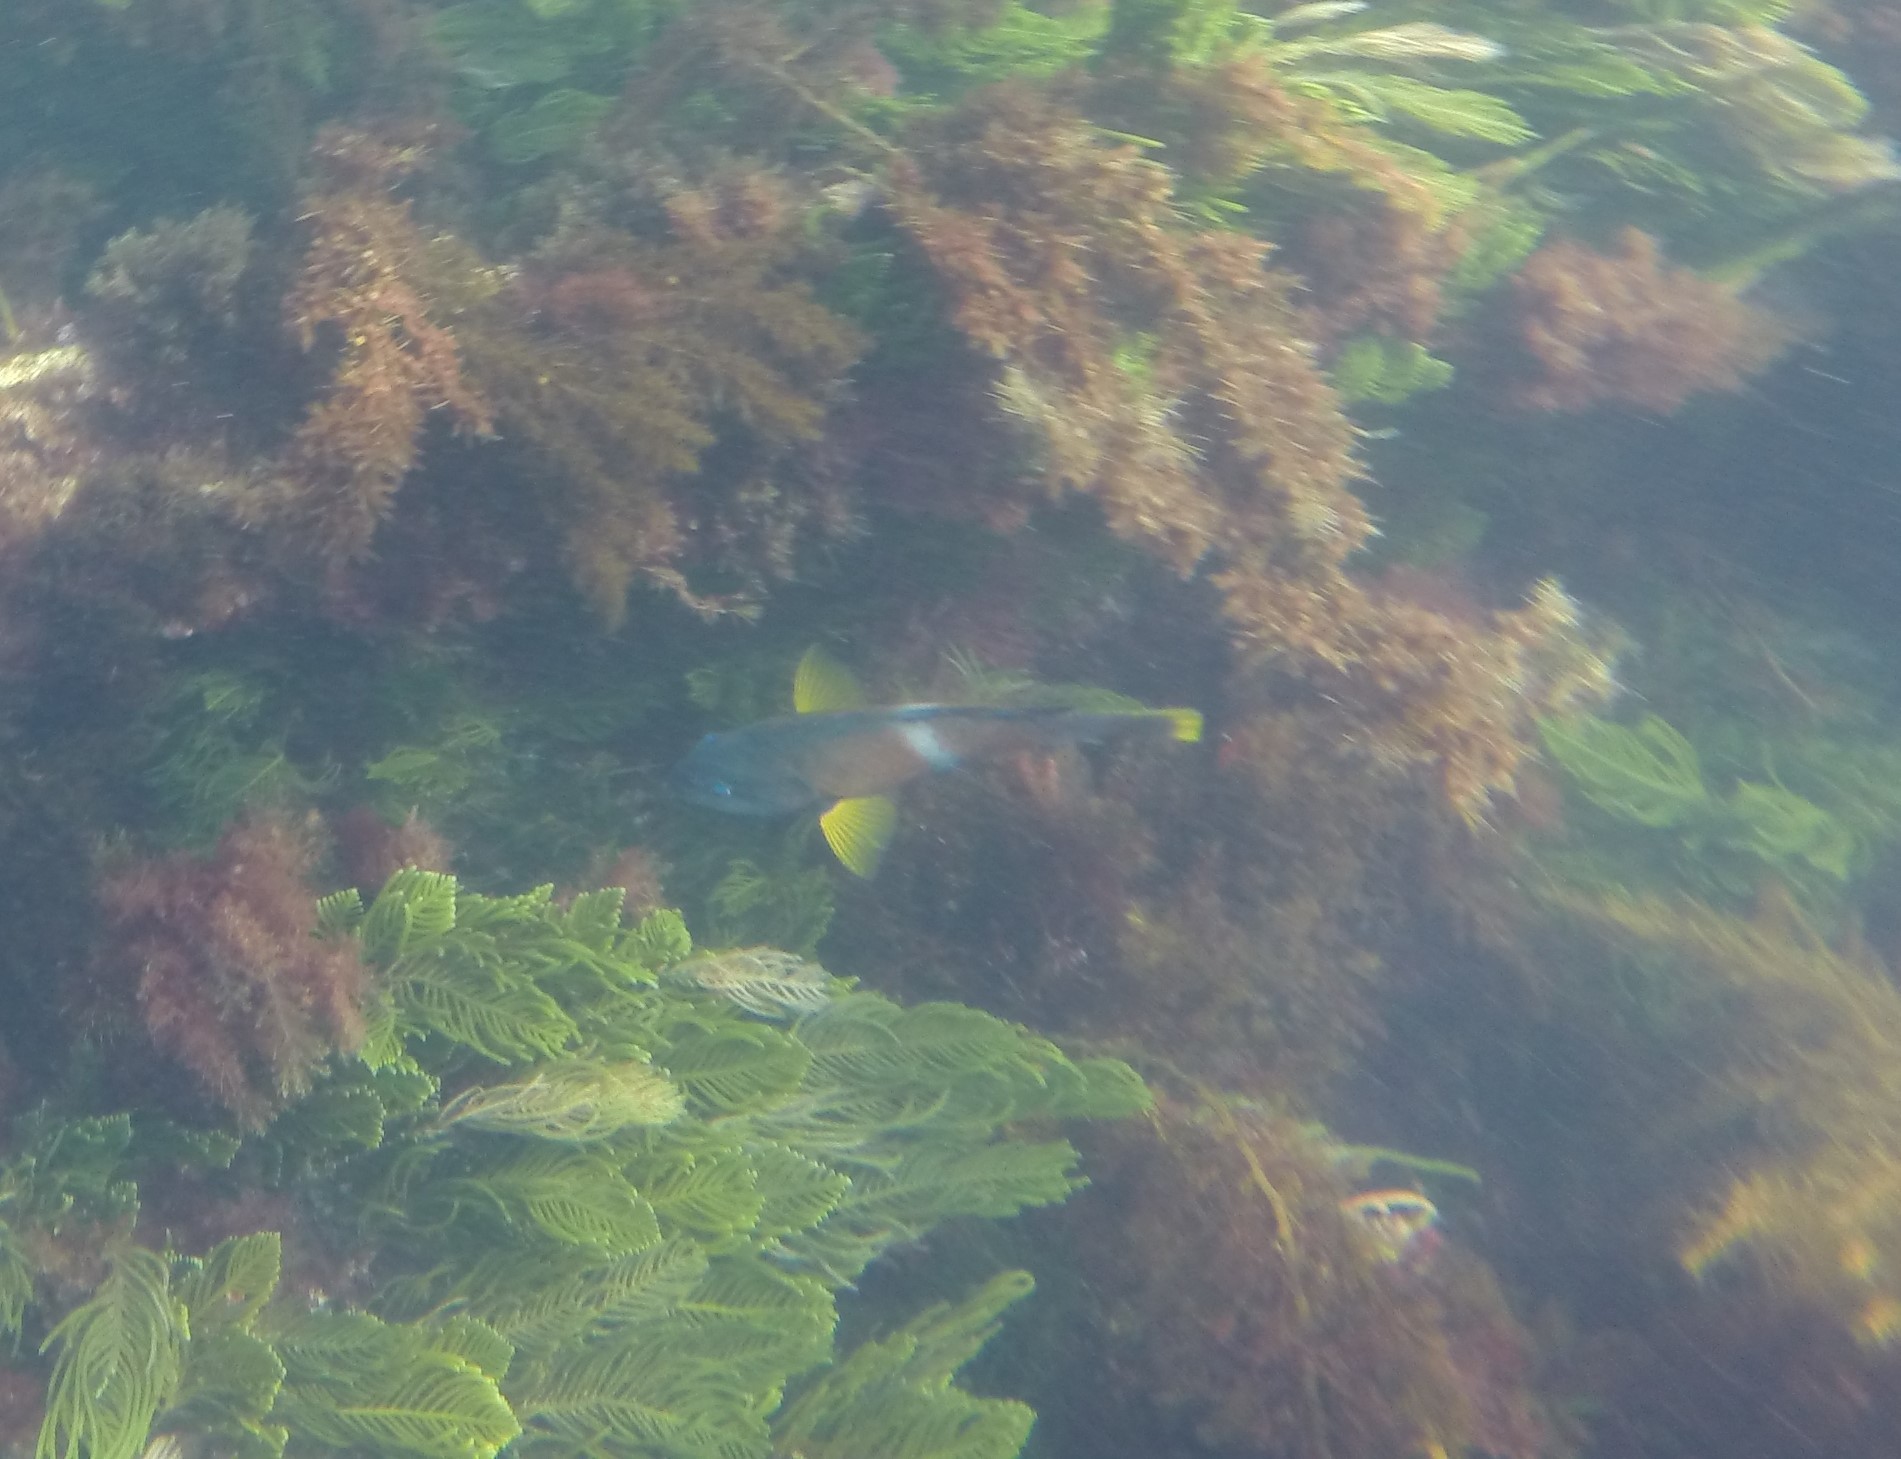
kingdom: Animalia
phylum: Chordata
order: Perciformes
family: Labridae
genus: Notolabrus
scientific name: Notolabrus tetricus
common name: Blue-throated parrotfish
